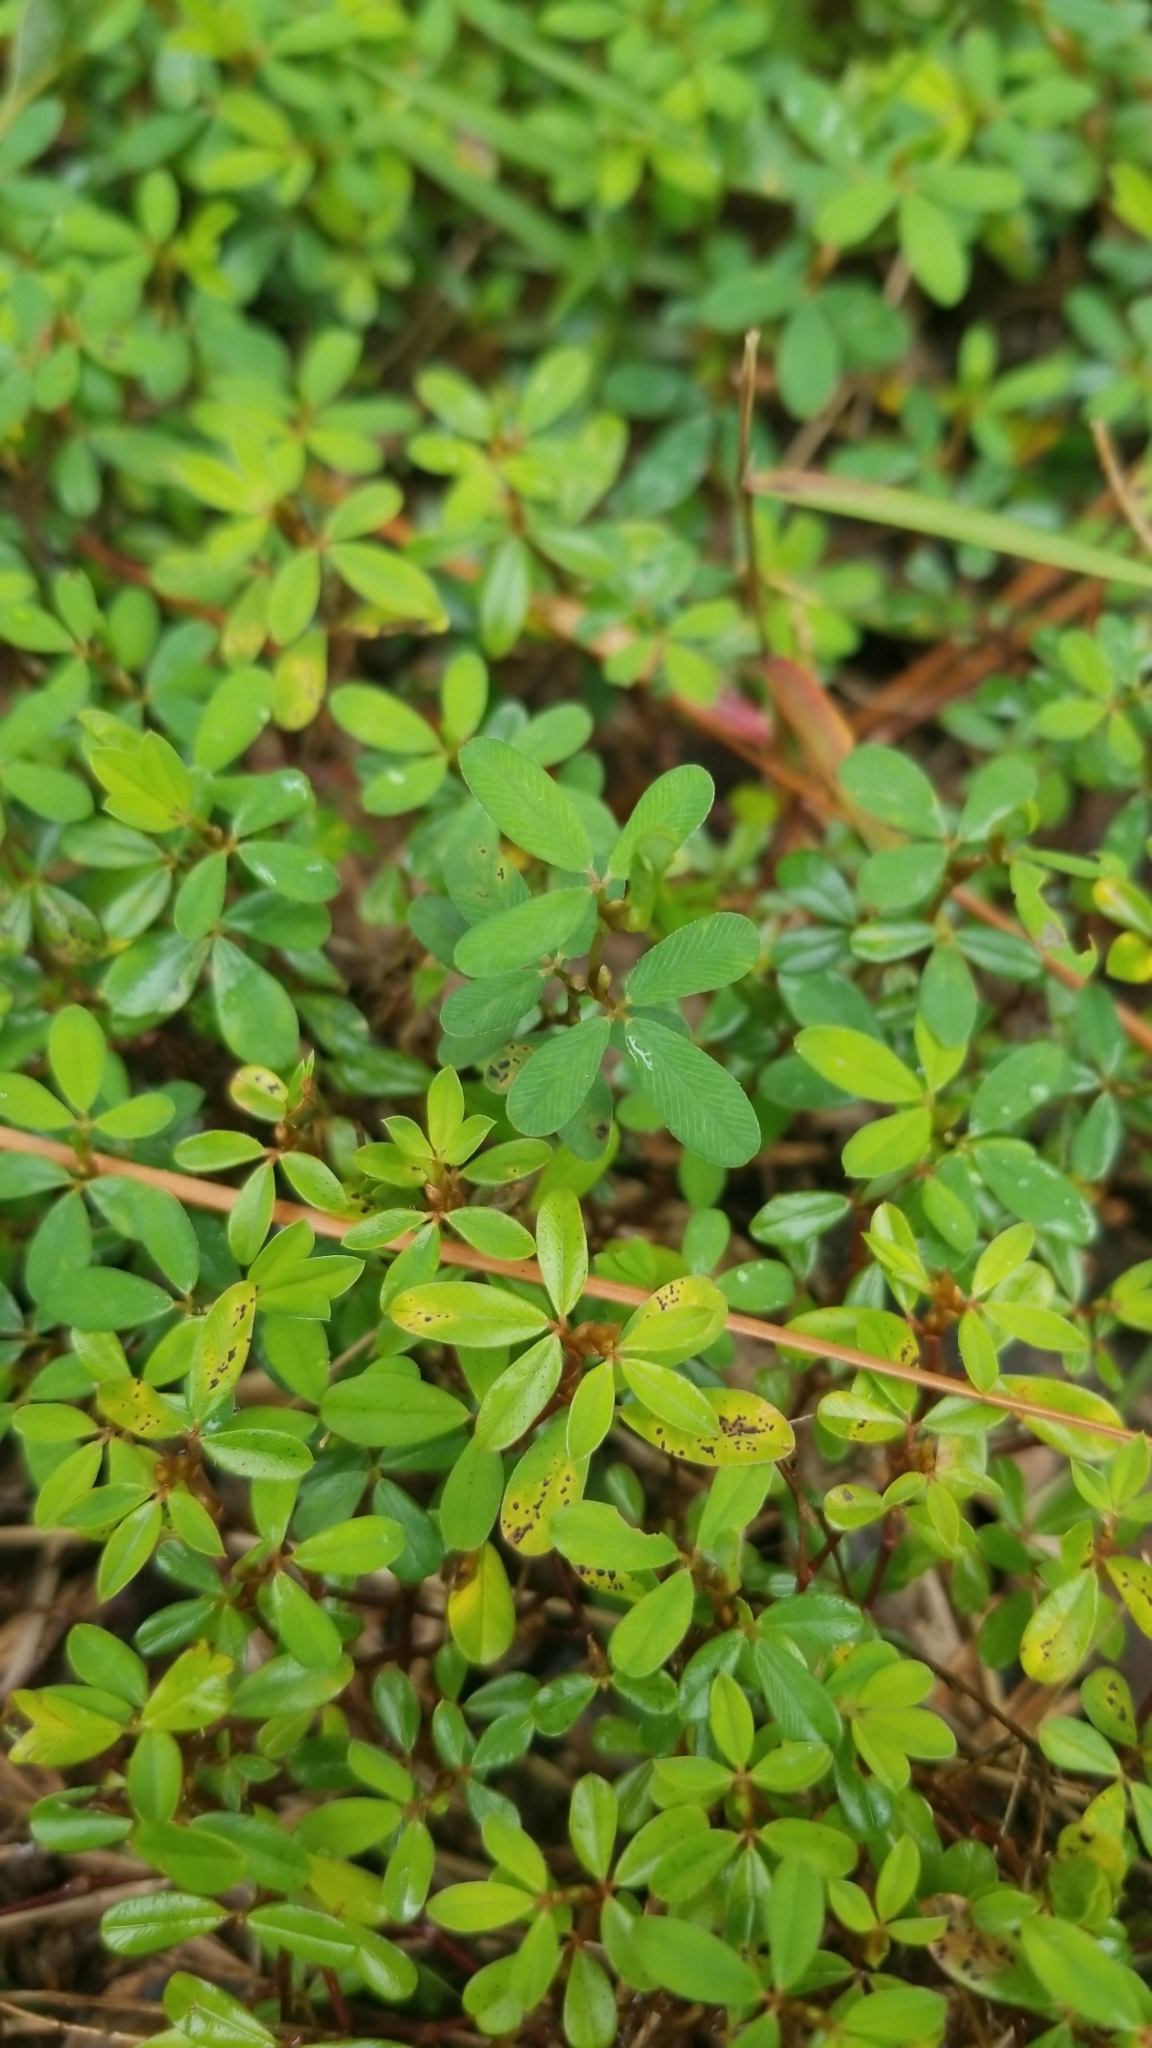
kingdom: Plantae
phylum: Tracheophyta
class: Magnoliopsida
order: Fabales
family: Fabaceae
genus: Kummerowia
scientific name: Kummerowia striata
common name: Japanese clover
